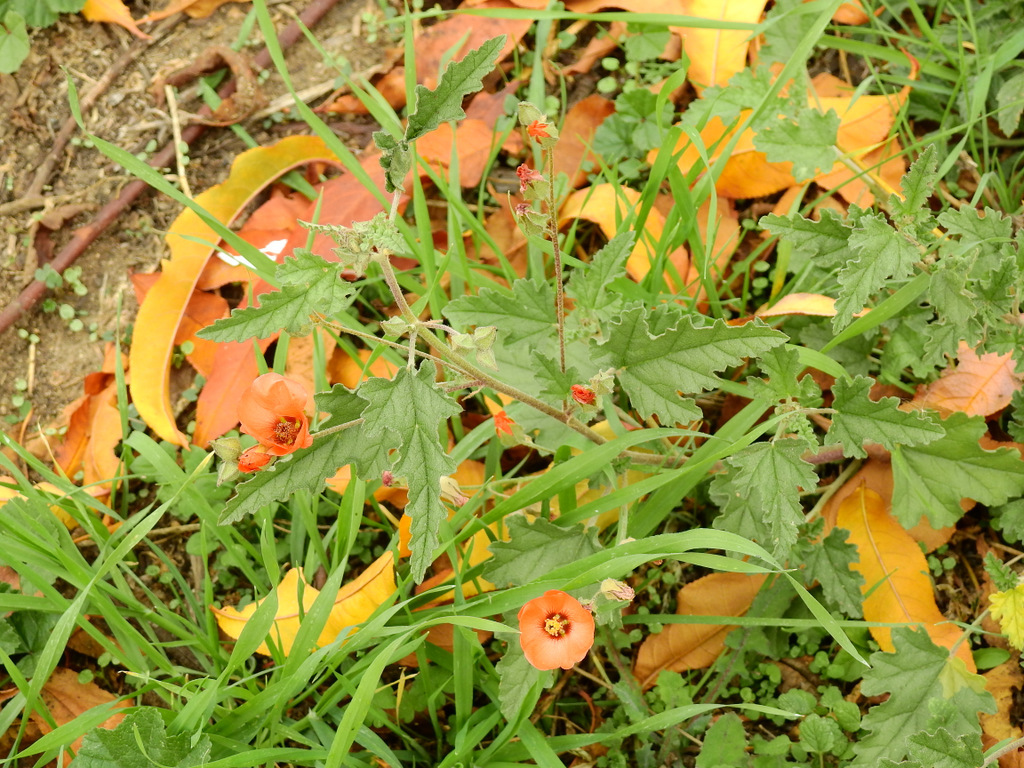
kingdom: Plantae
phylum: Tracheophyta
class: Magnoliopsida
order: Malvales
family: Malvaceae
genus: Sphaeralcea
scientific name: Sphaeralcea miniata
